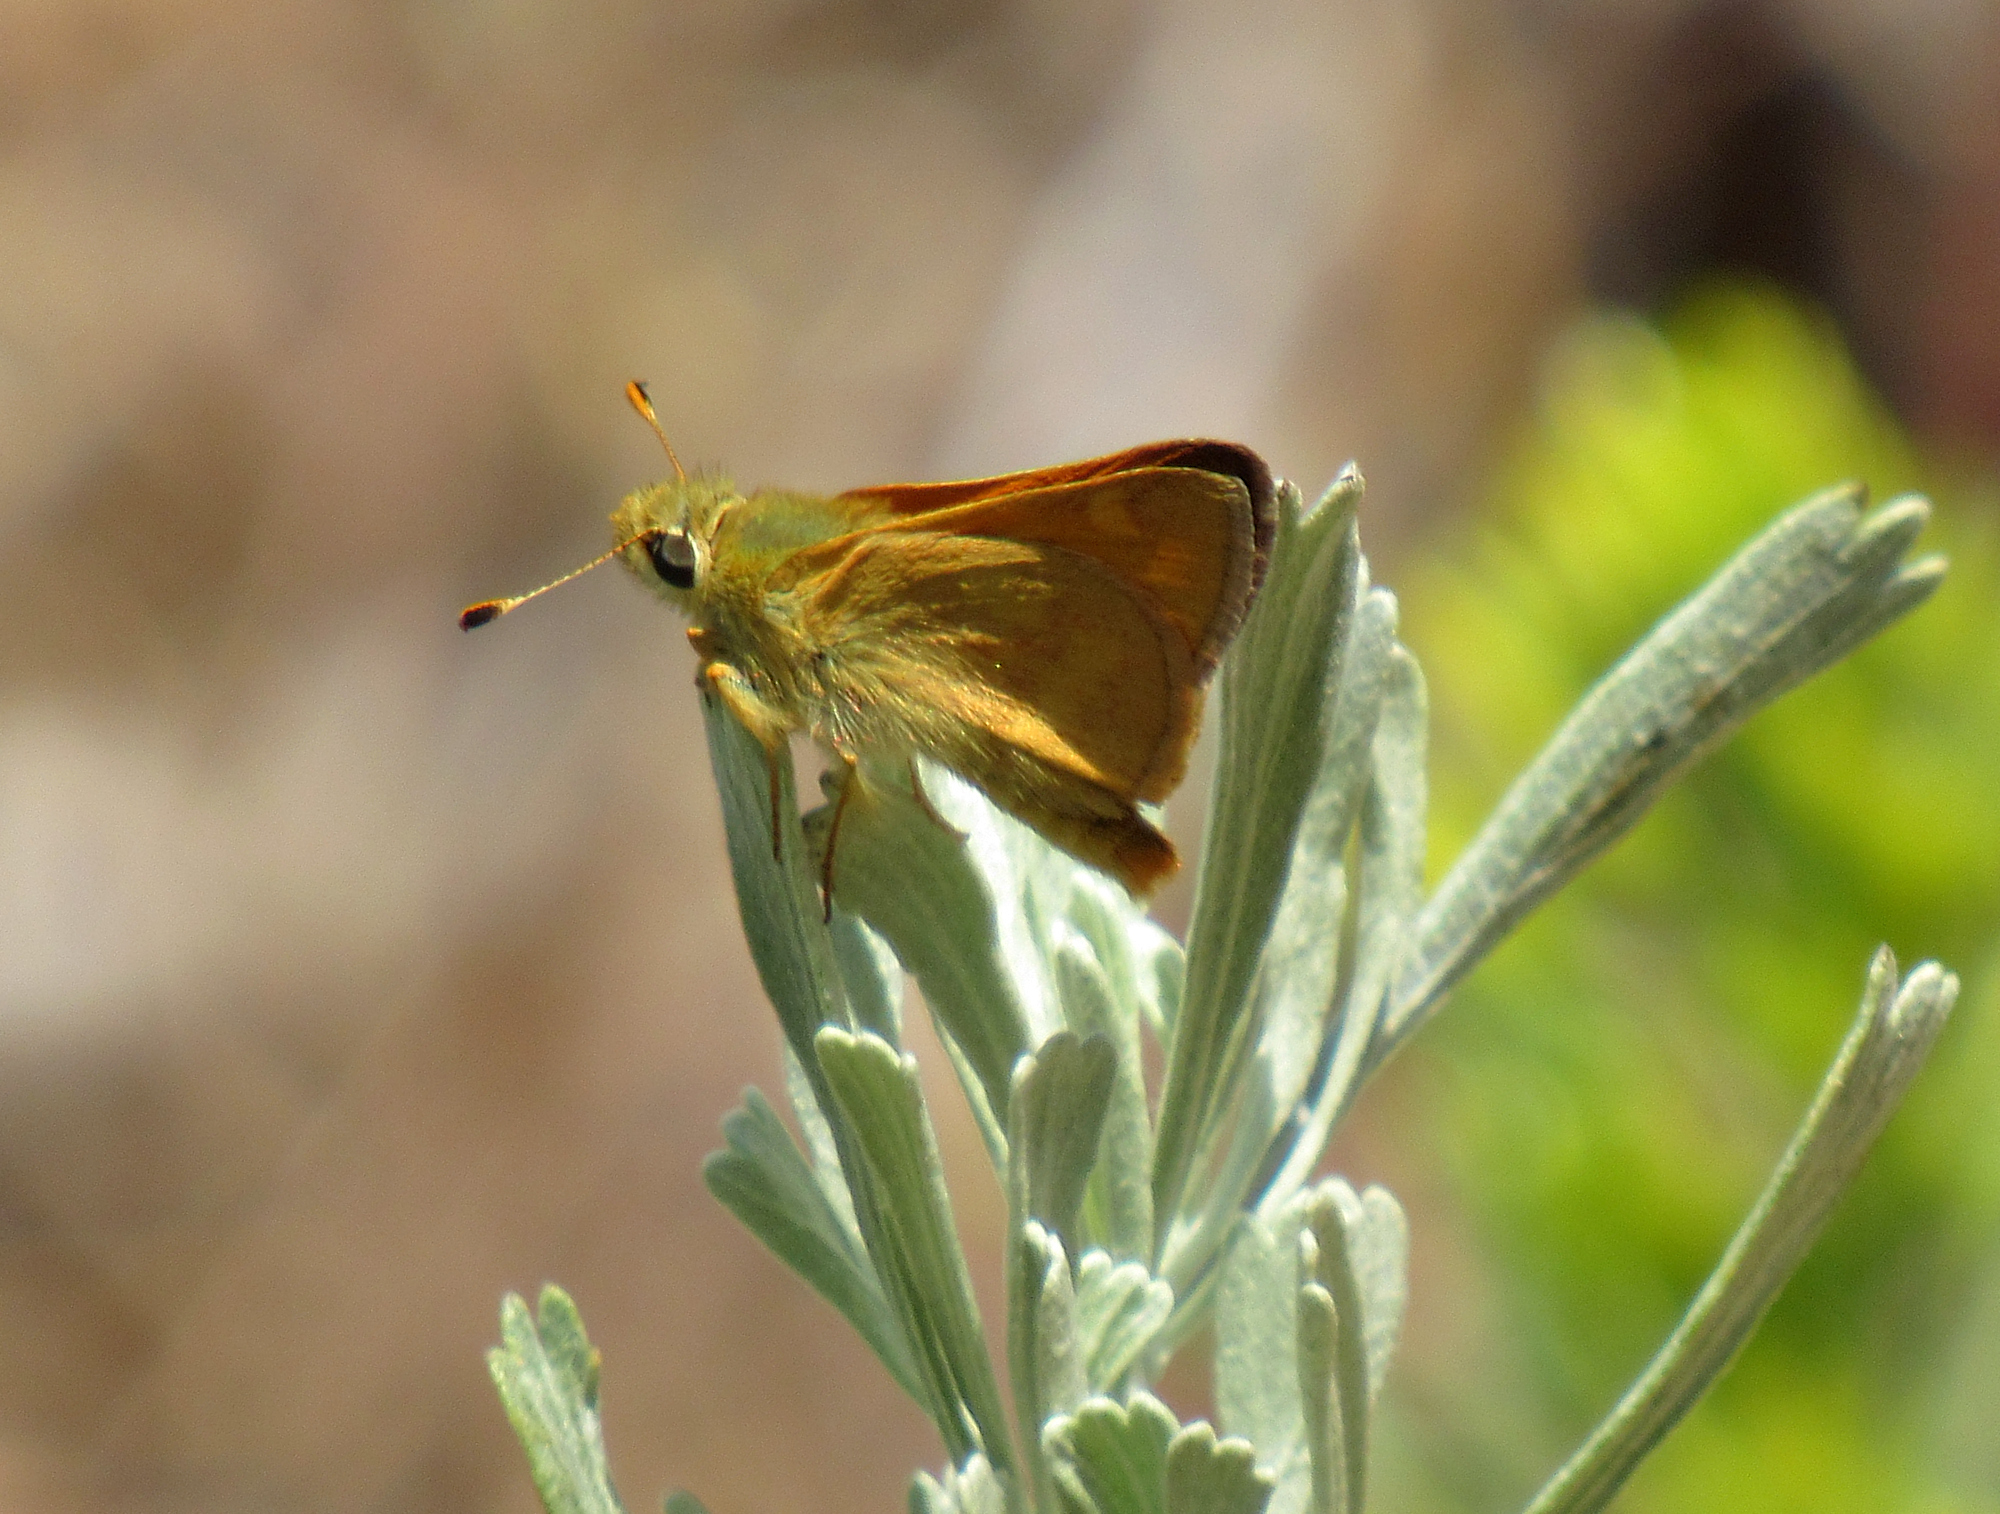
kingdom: Animalia
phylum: Arthropoda
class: Insecta
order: Lepidoptera
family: Hesperiidae
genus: Ochlodes
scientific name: Ochlodes sylvanoides
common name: Woodland skipper
